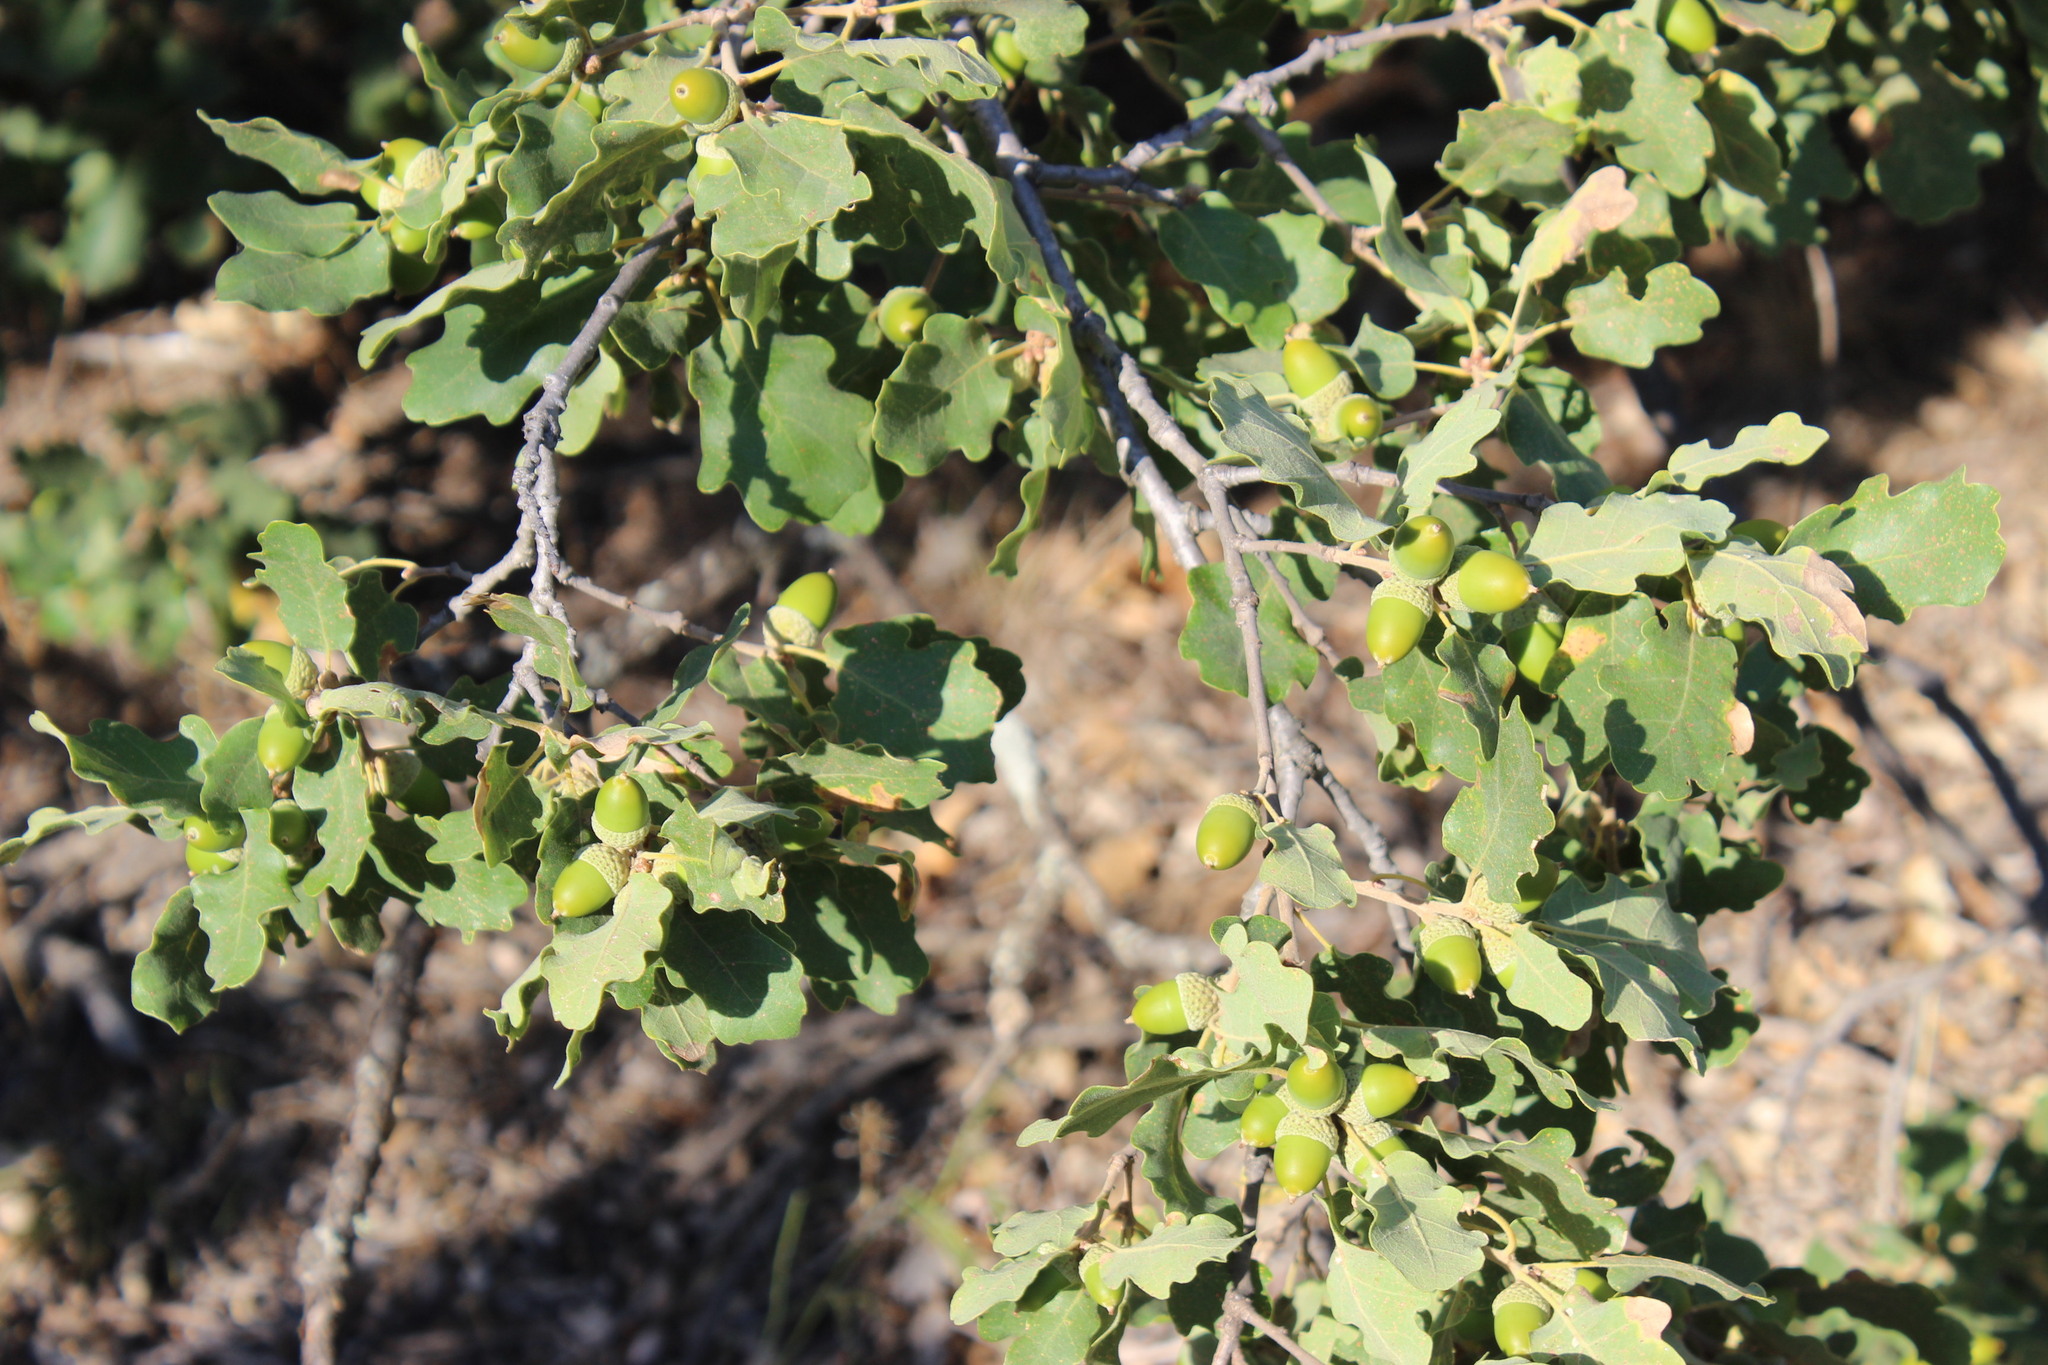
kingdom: Plantae
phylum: Tracheophyta
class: Magnoliopsida
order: Fagales
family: Fagaceae
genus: Quercus
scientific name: Quercus pubescens
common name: Downy oak
